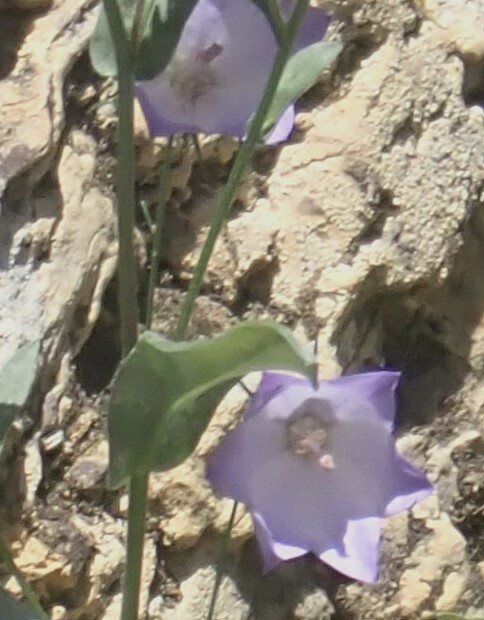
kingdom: Plantae
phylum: Tracheophyta
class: Magnoliopsida
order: Asterales
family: Campanulaceae
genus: Campanula
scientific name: Campanula alaskana
